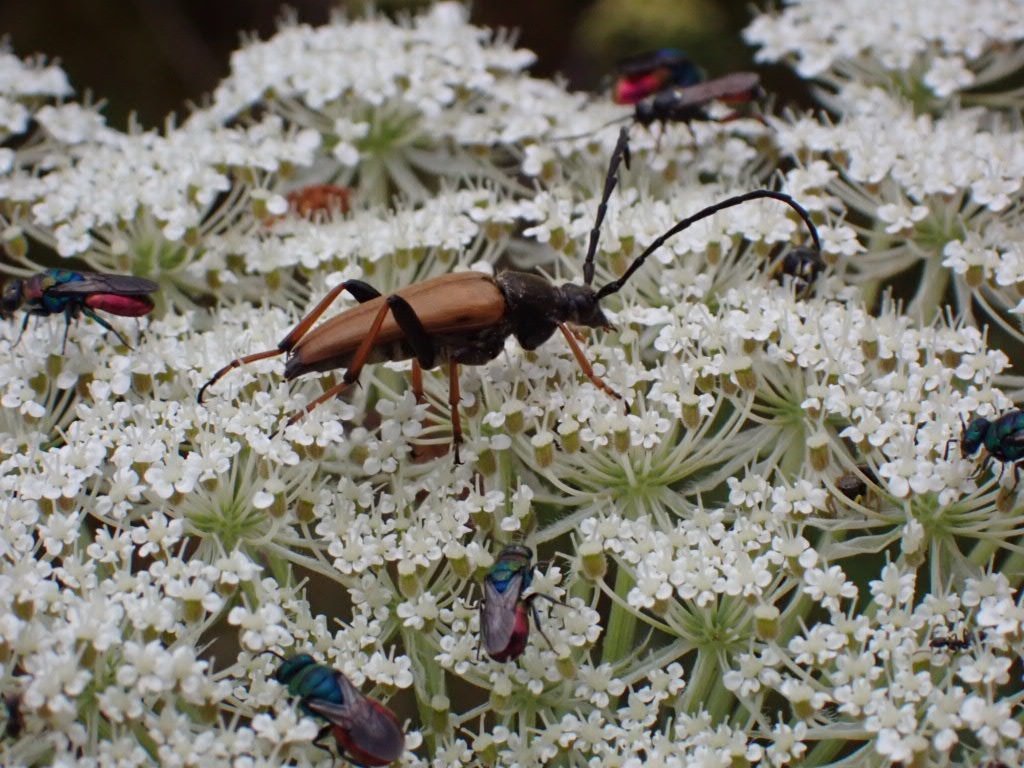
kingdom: Animalia
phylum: Arthropoda
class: Insecta
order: Coleoptera
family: Cerambycidae
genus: Stictoleptura
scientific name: Stictoleptura rubra
